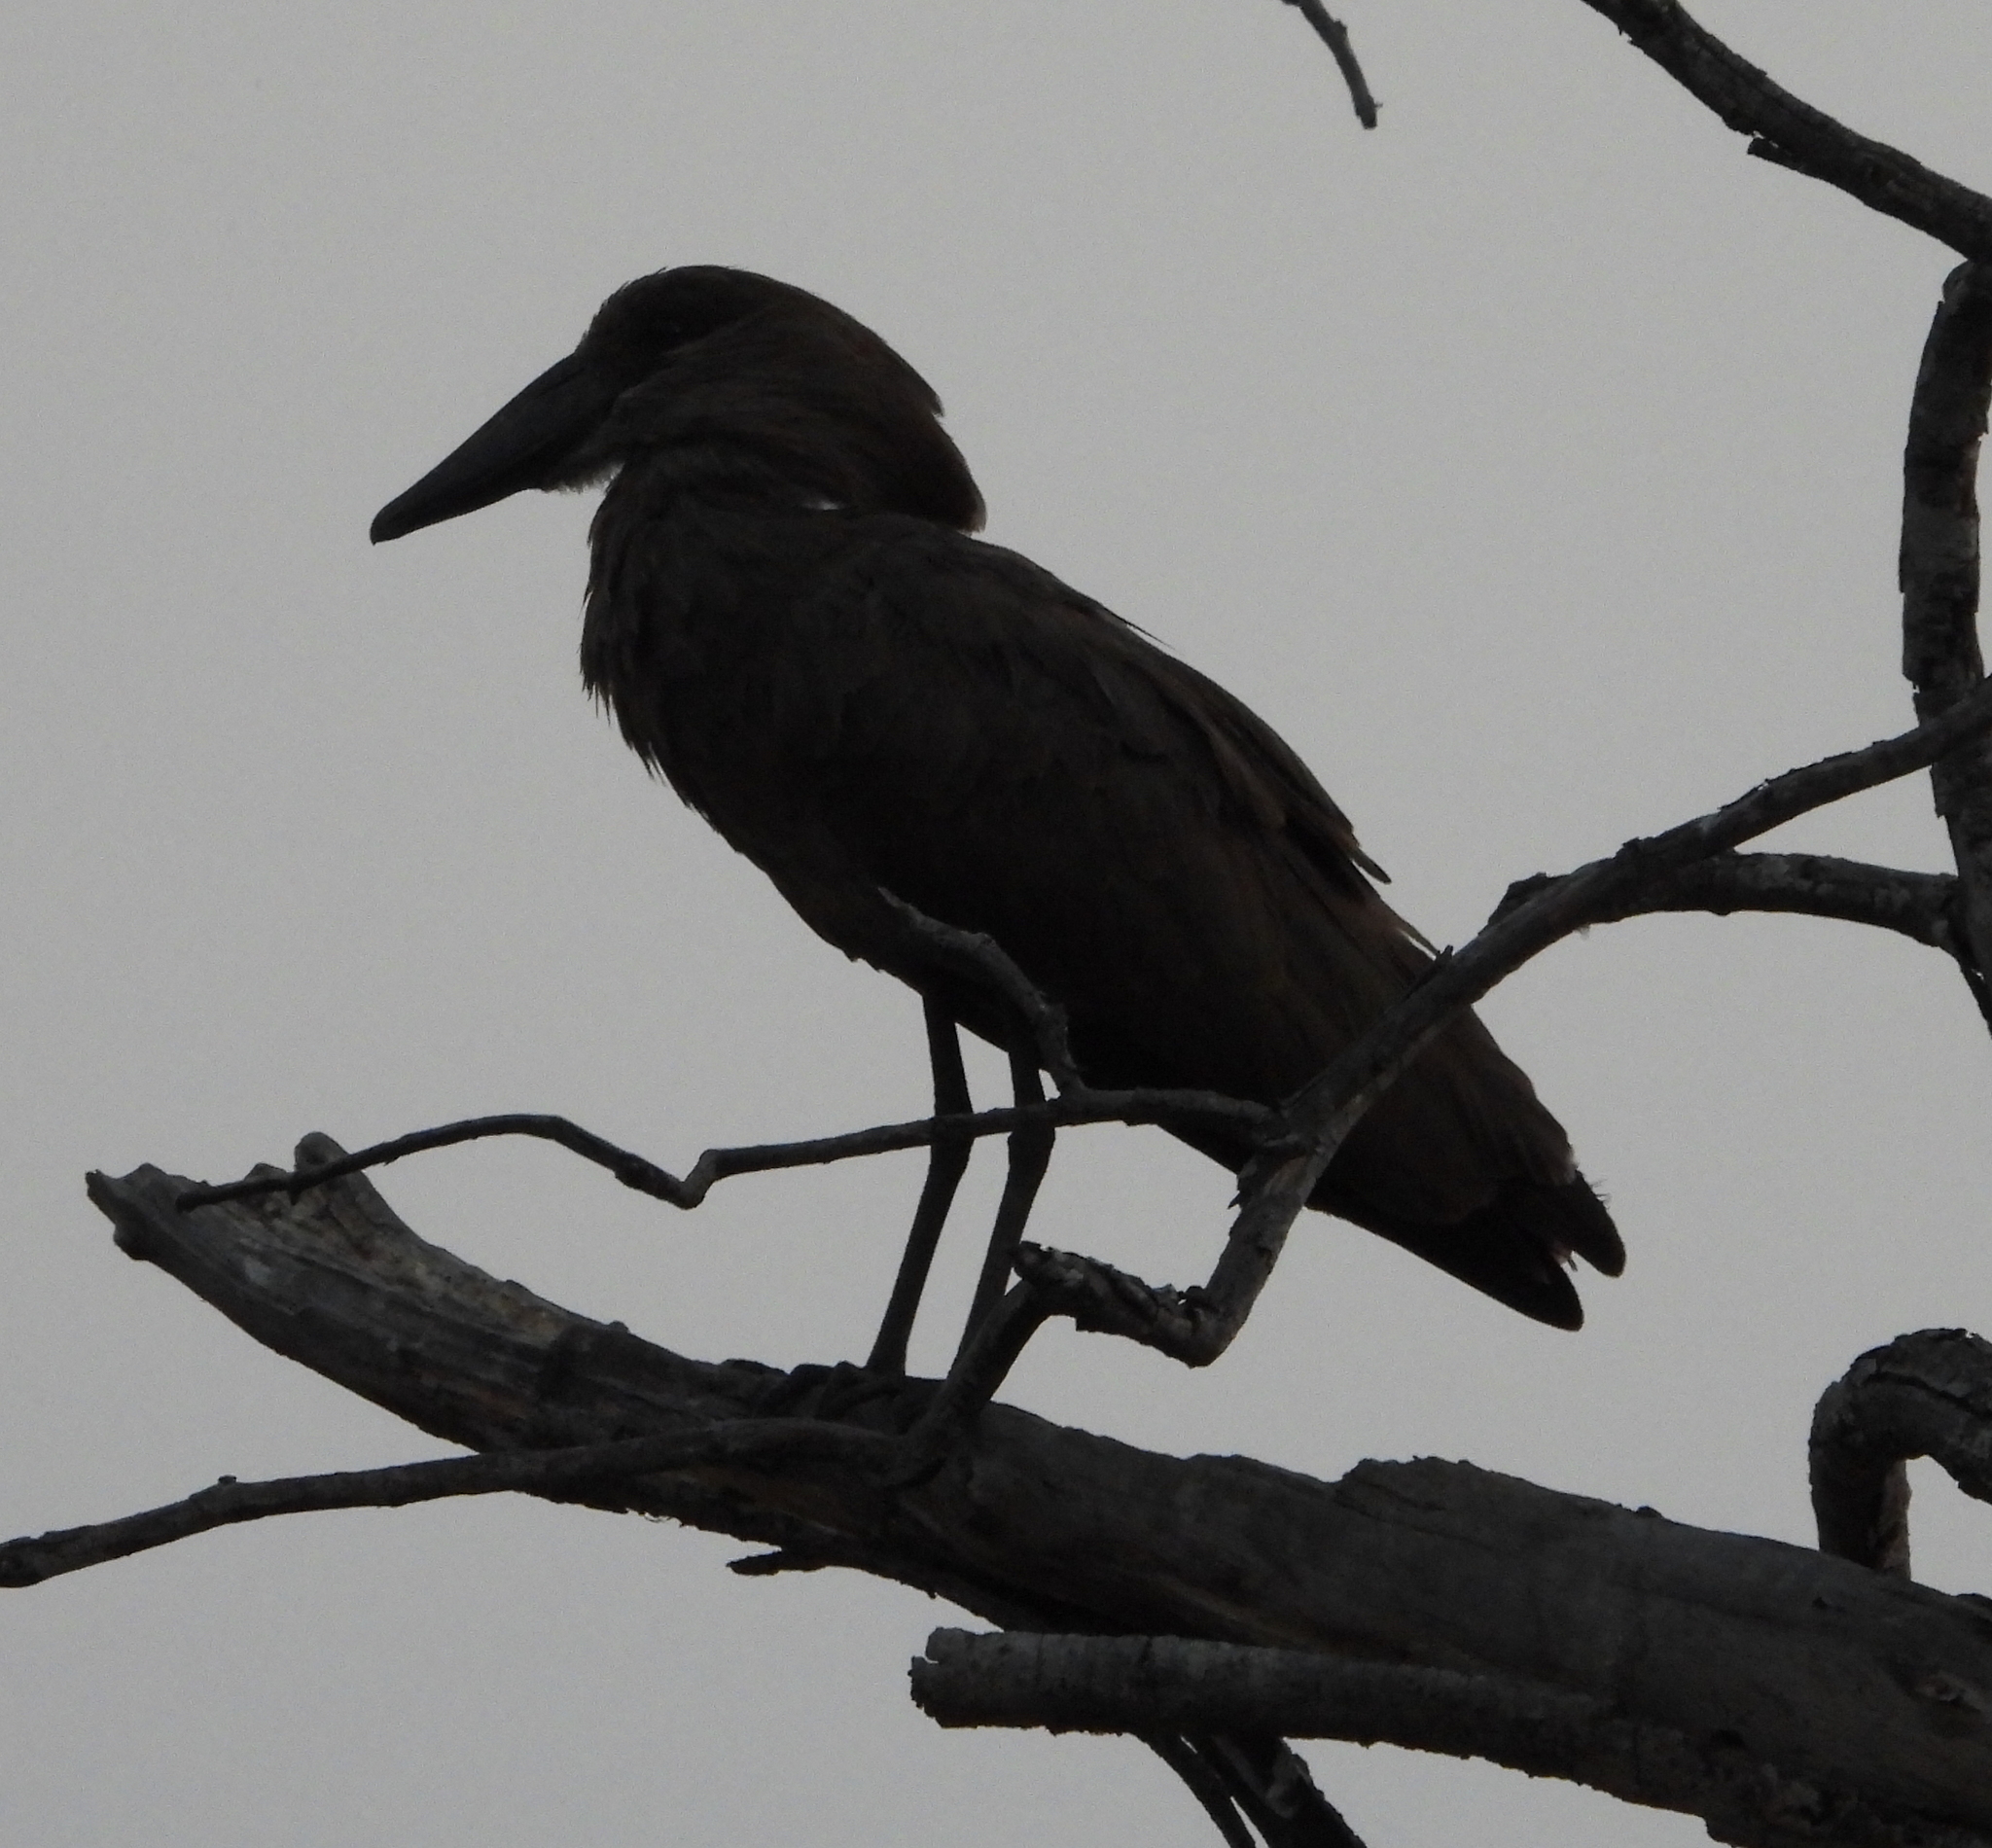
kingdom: Animalia
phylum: Chordata
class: Aves
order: Pelecaniformes
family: Scopidae
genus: Scopus
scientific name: Scopus umbretta
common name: Hamerkop
